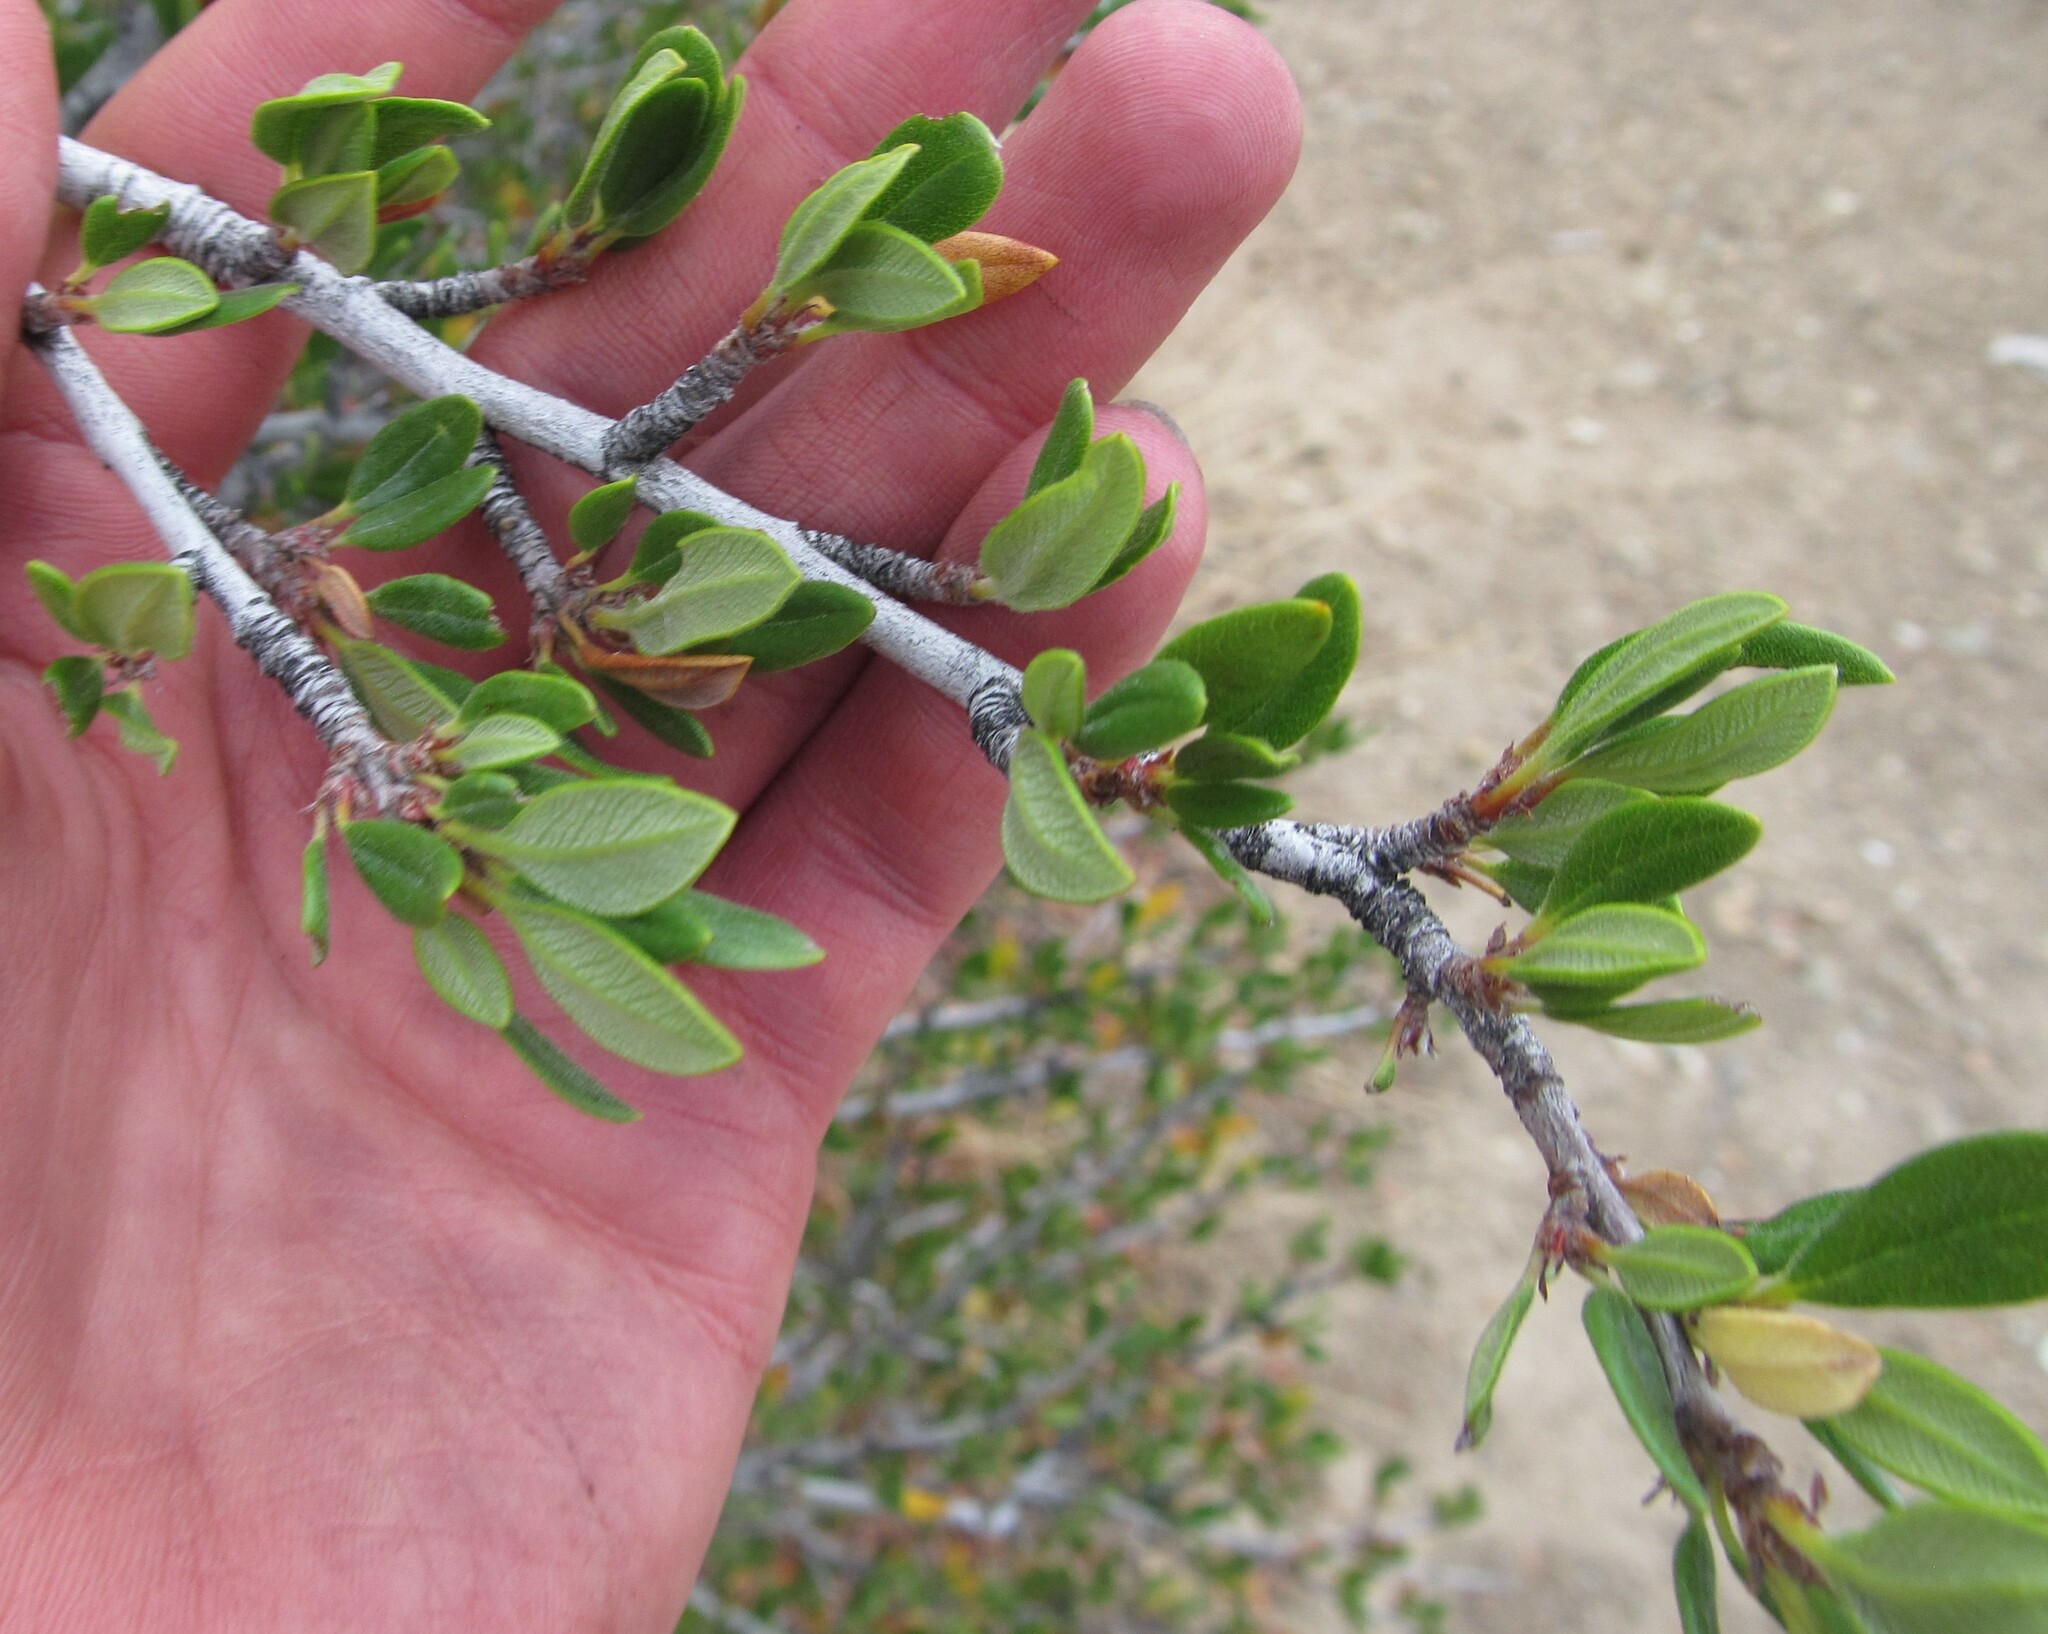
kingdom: Plantae
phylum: Tracheophyta
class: Magnoliopsida
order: Rosales
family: Rosaceae
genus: Cercocarpus
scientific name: Cercocarpus ledifolius
